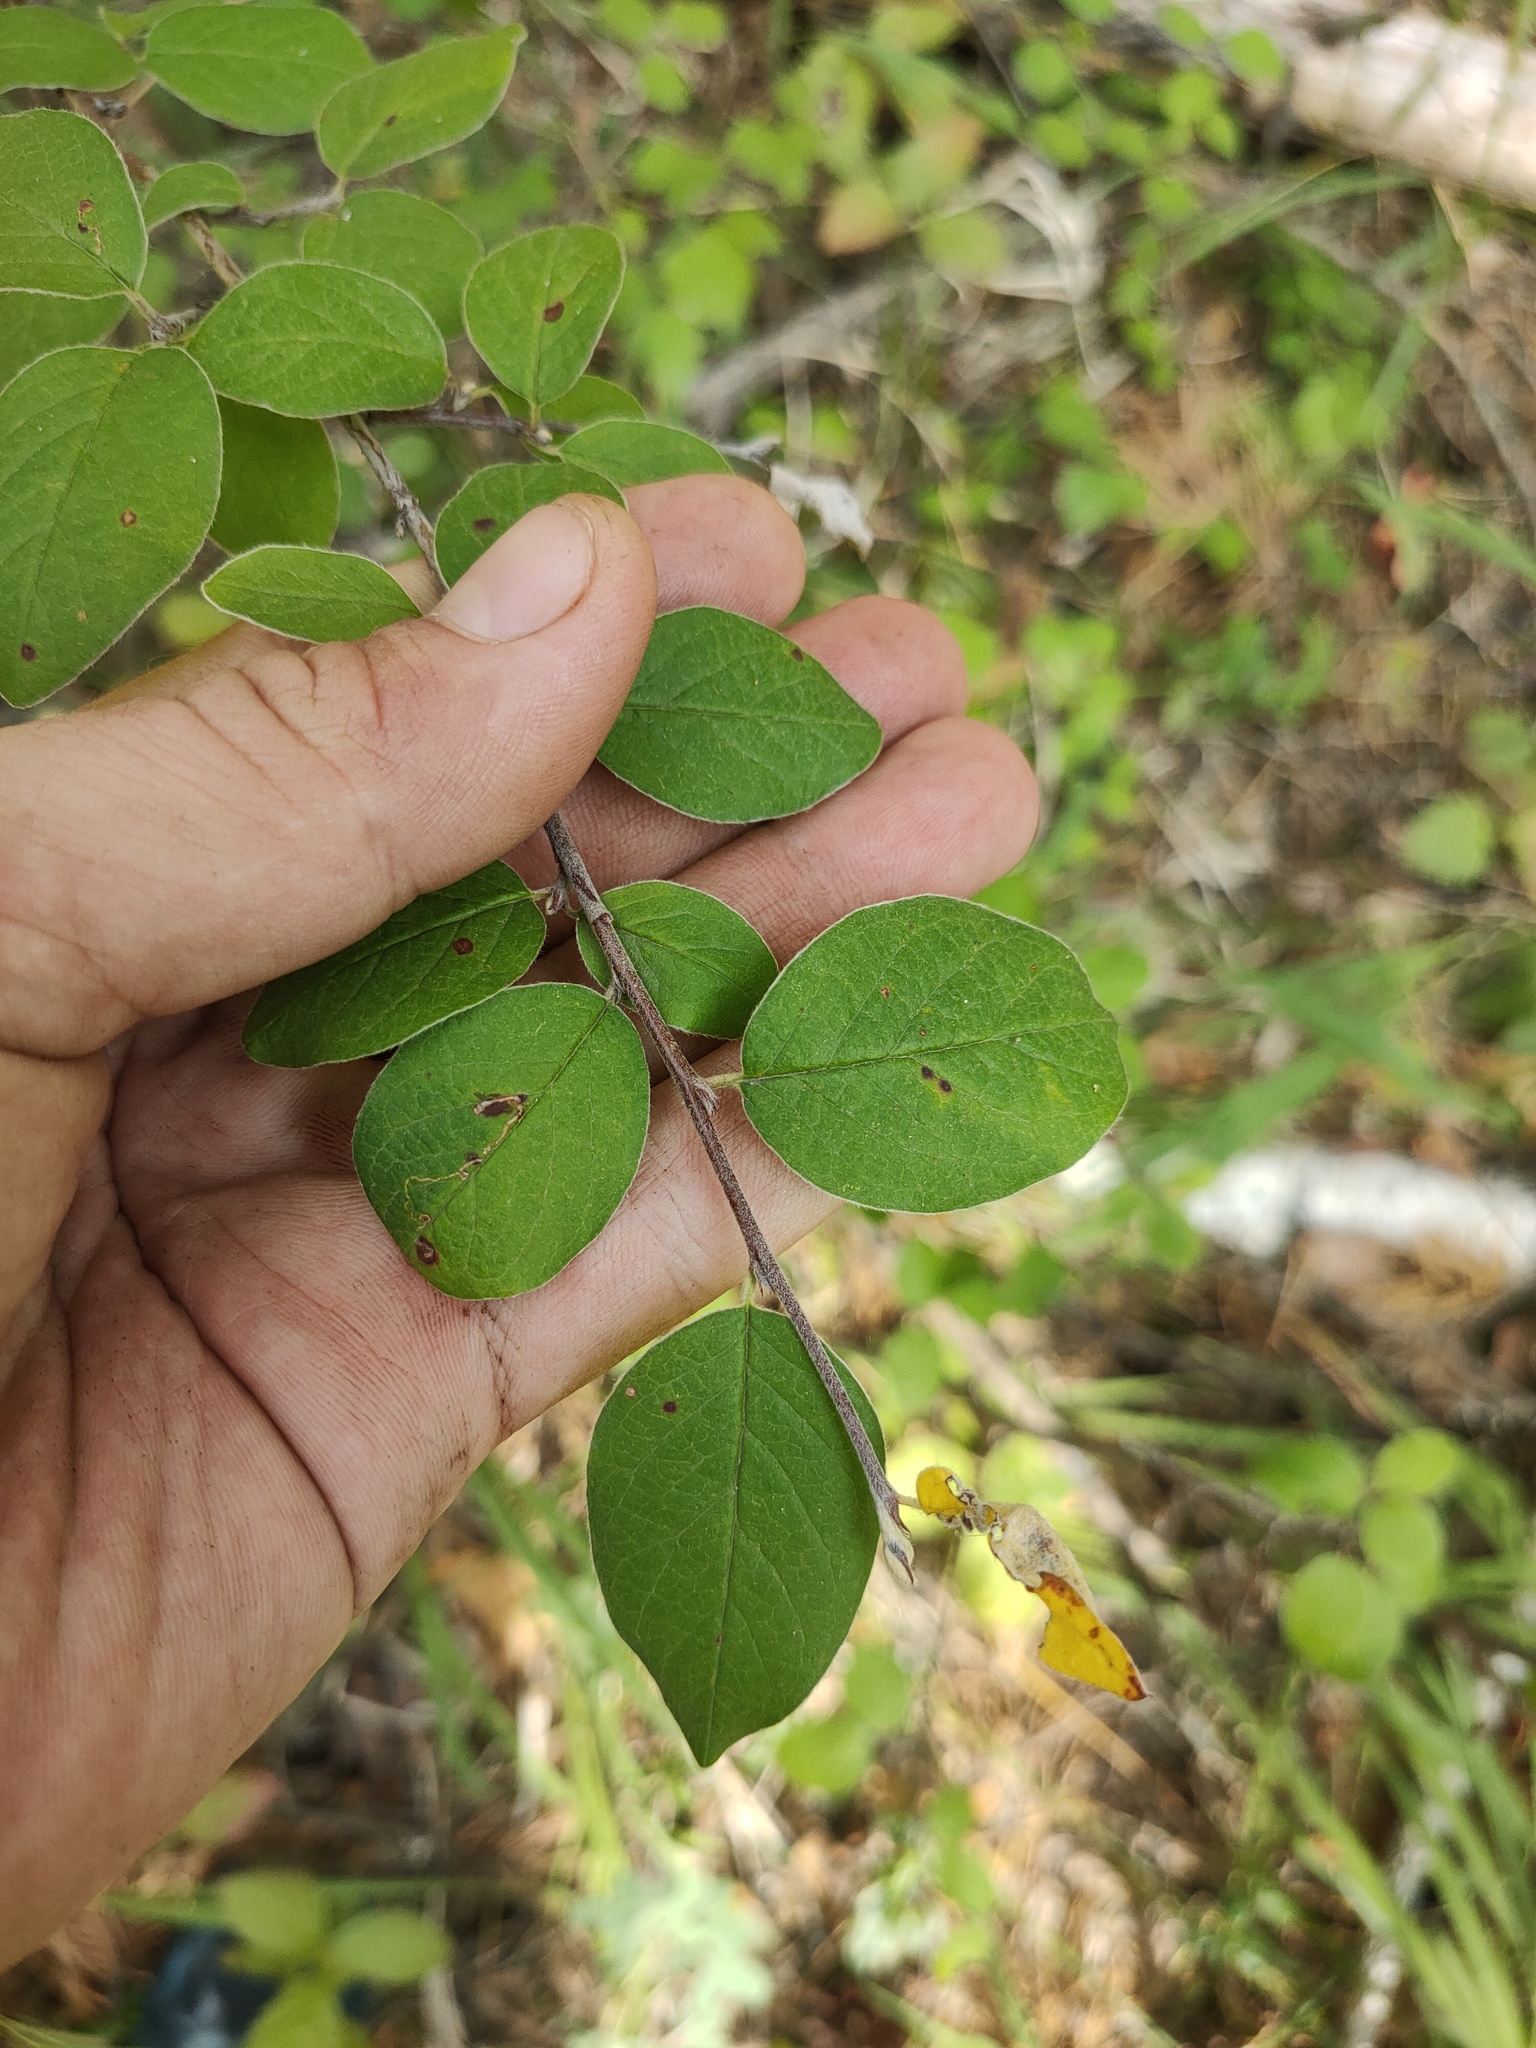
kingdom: Plantae
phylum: Tracheophyta
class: Magnoliopsida
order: Rosales
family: Rosaceae
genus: Cotoneaster
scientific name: Cotoneaster melanocarpus
